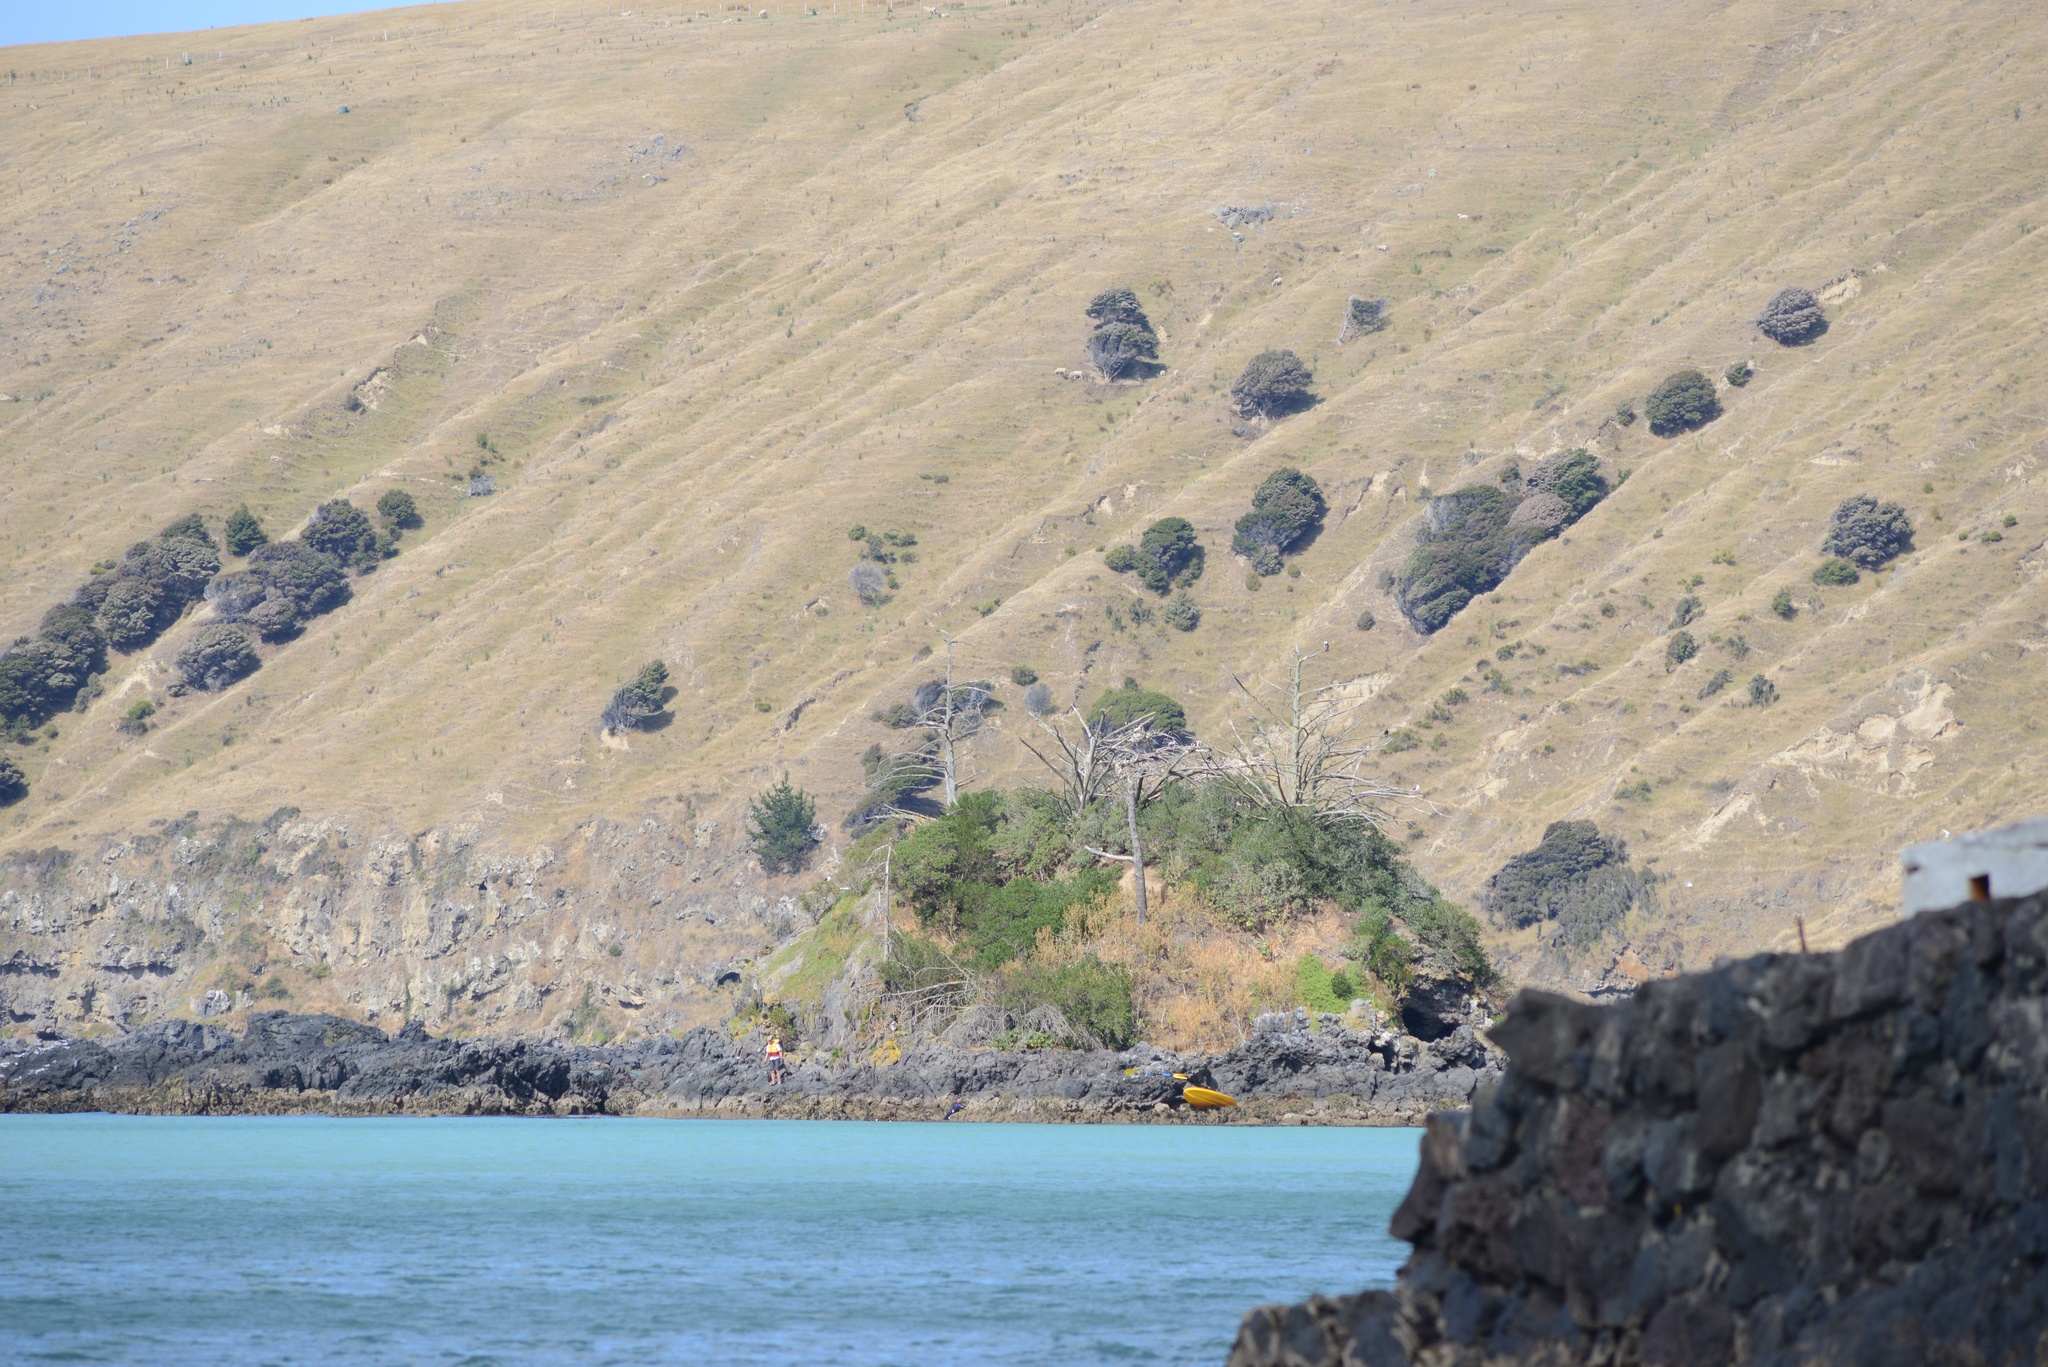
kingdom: Animalia
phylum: Chordata
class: Aves
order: Suliformes
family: Phalacrocoracidae
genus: Phalacrocorax
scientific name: Phalacrocorax varius
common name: Pied cormorant
